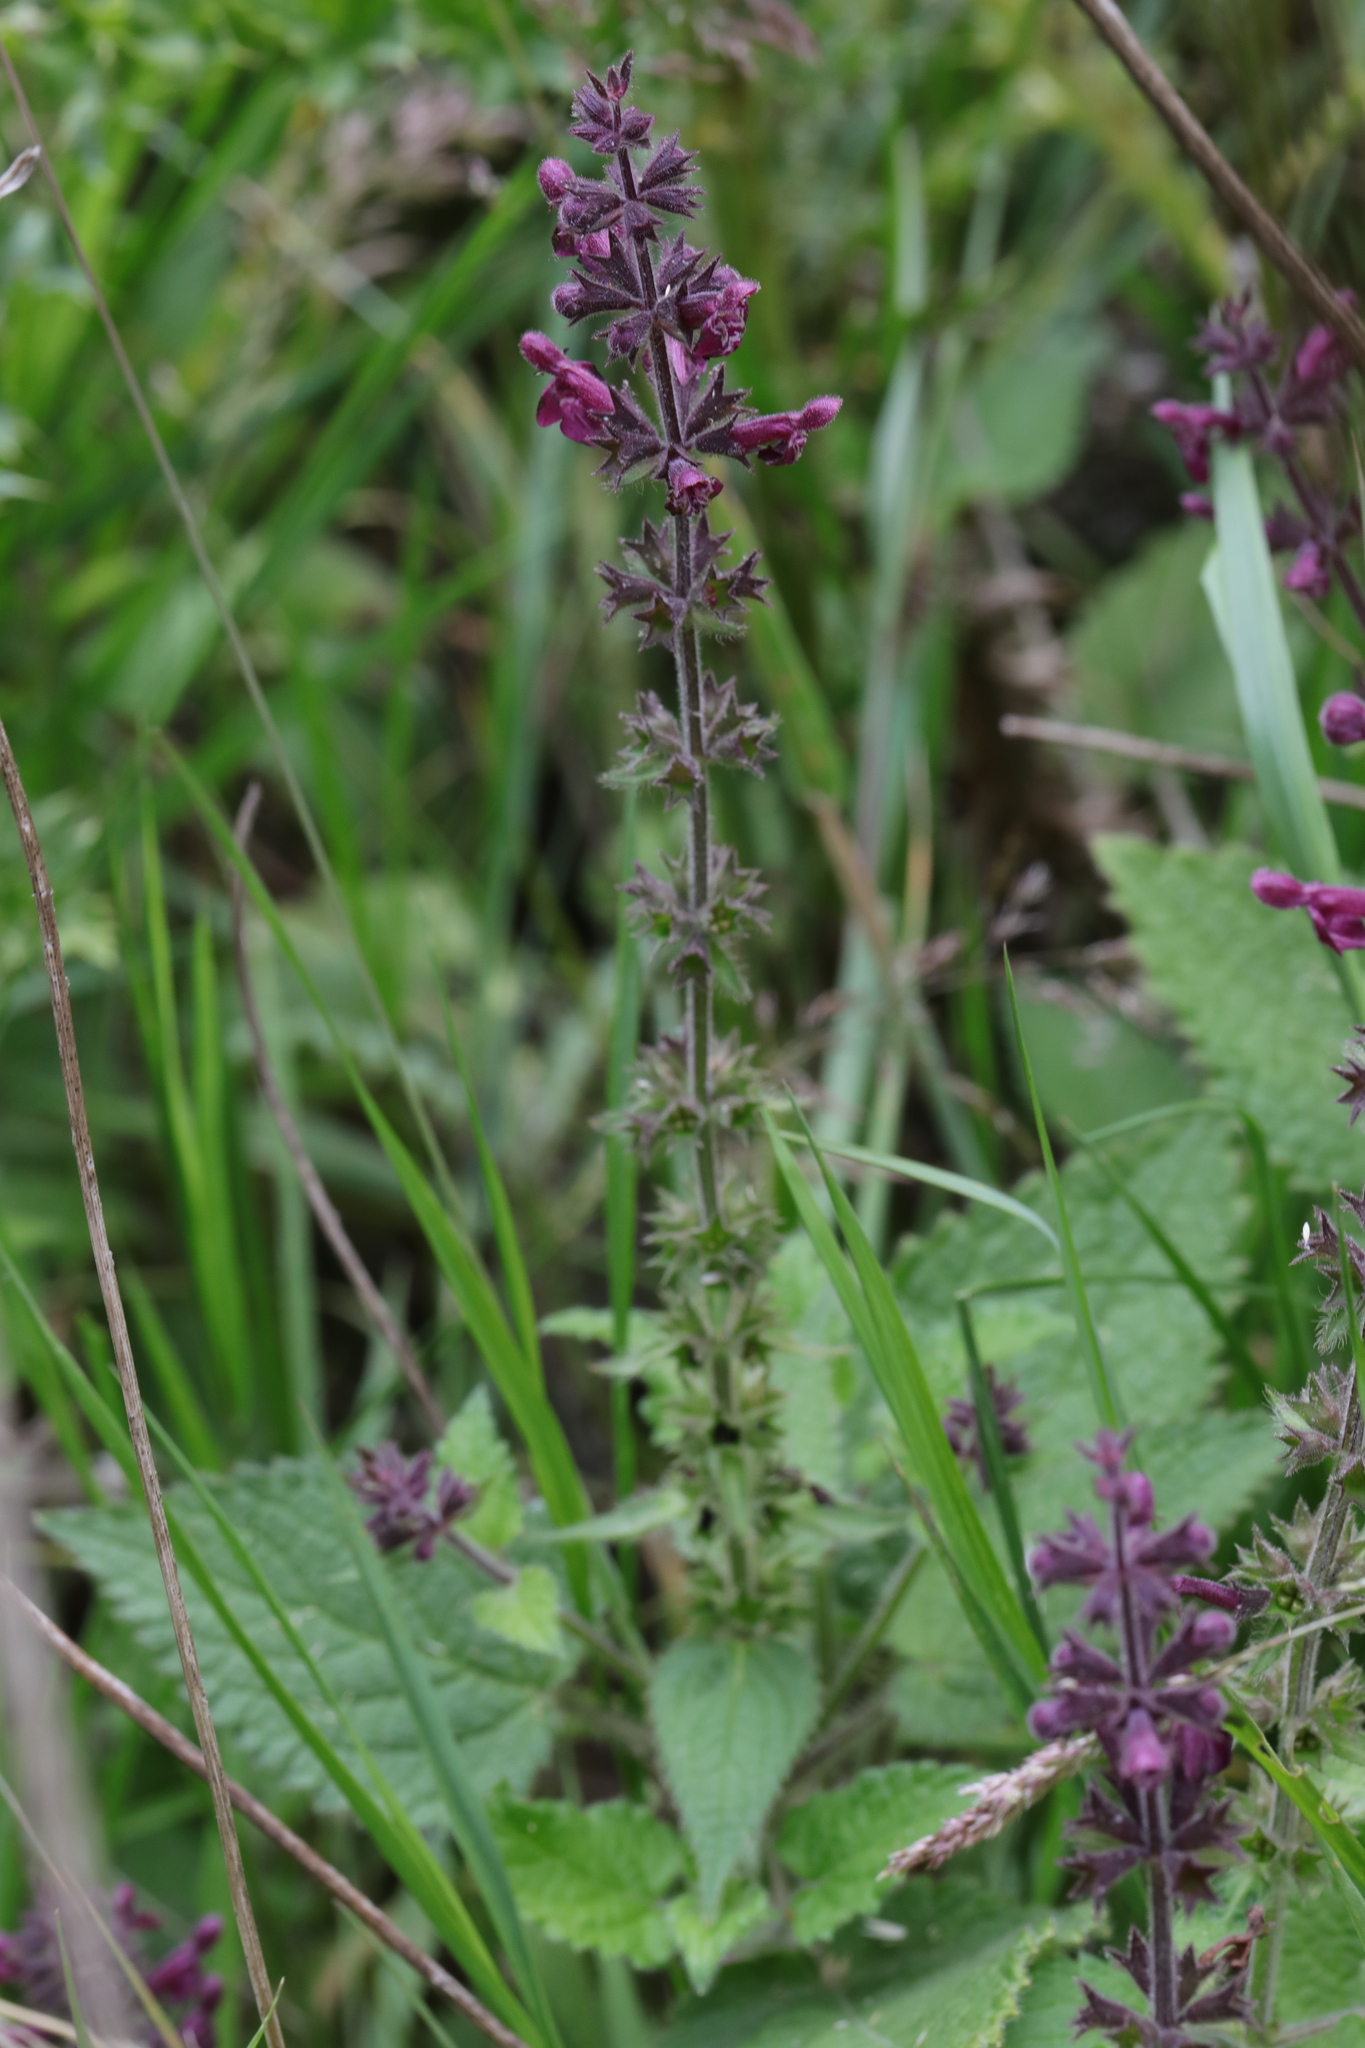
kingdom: Plantae
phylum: Tracheophyta
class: Magnoliopsida
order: Lamiales
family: Lamiaceae
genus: Stachys
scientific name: Stachys sylvatica
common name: Hedge woundwort
